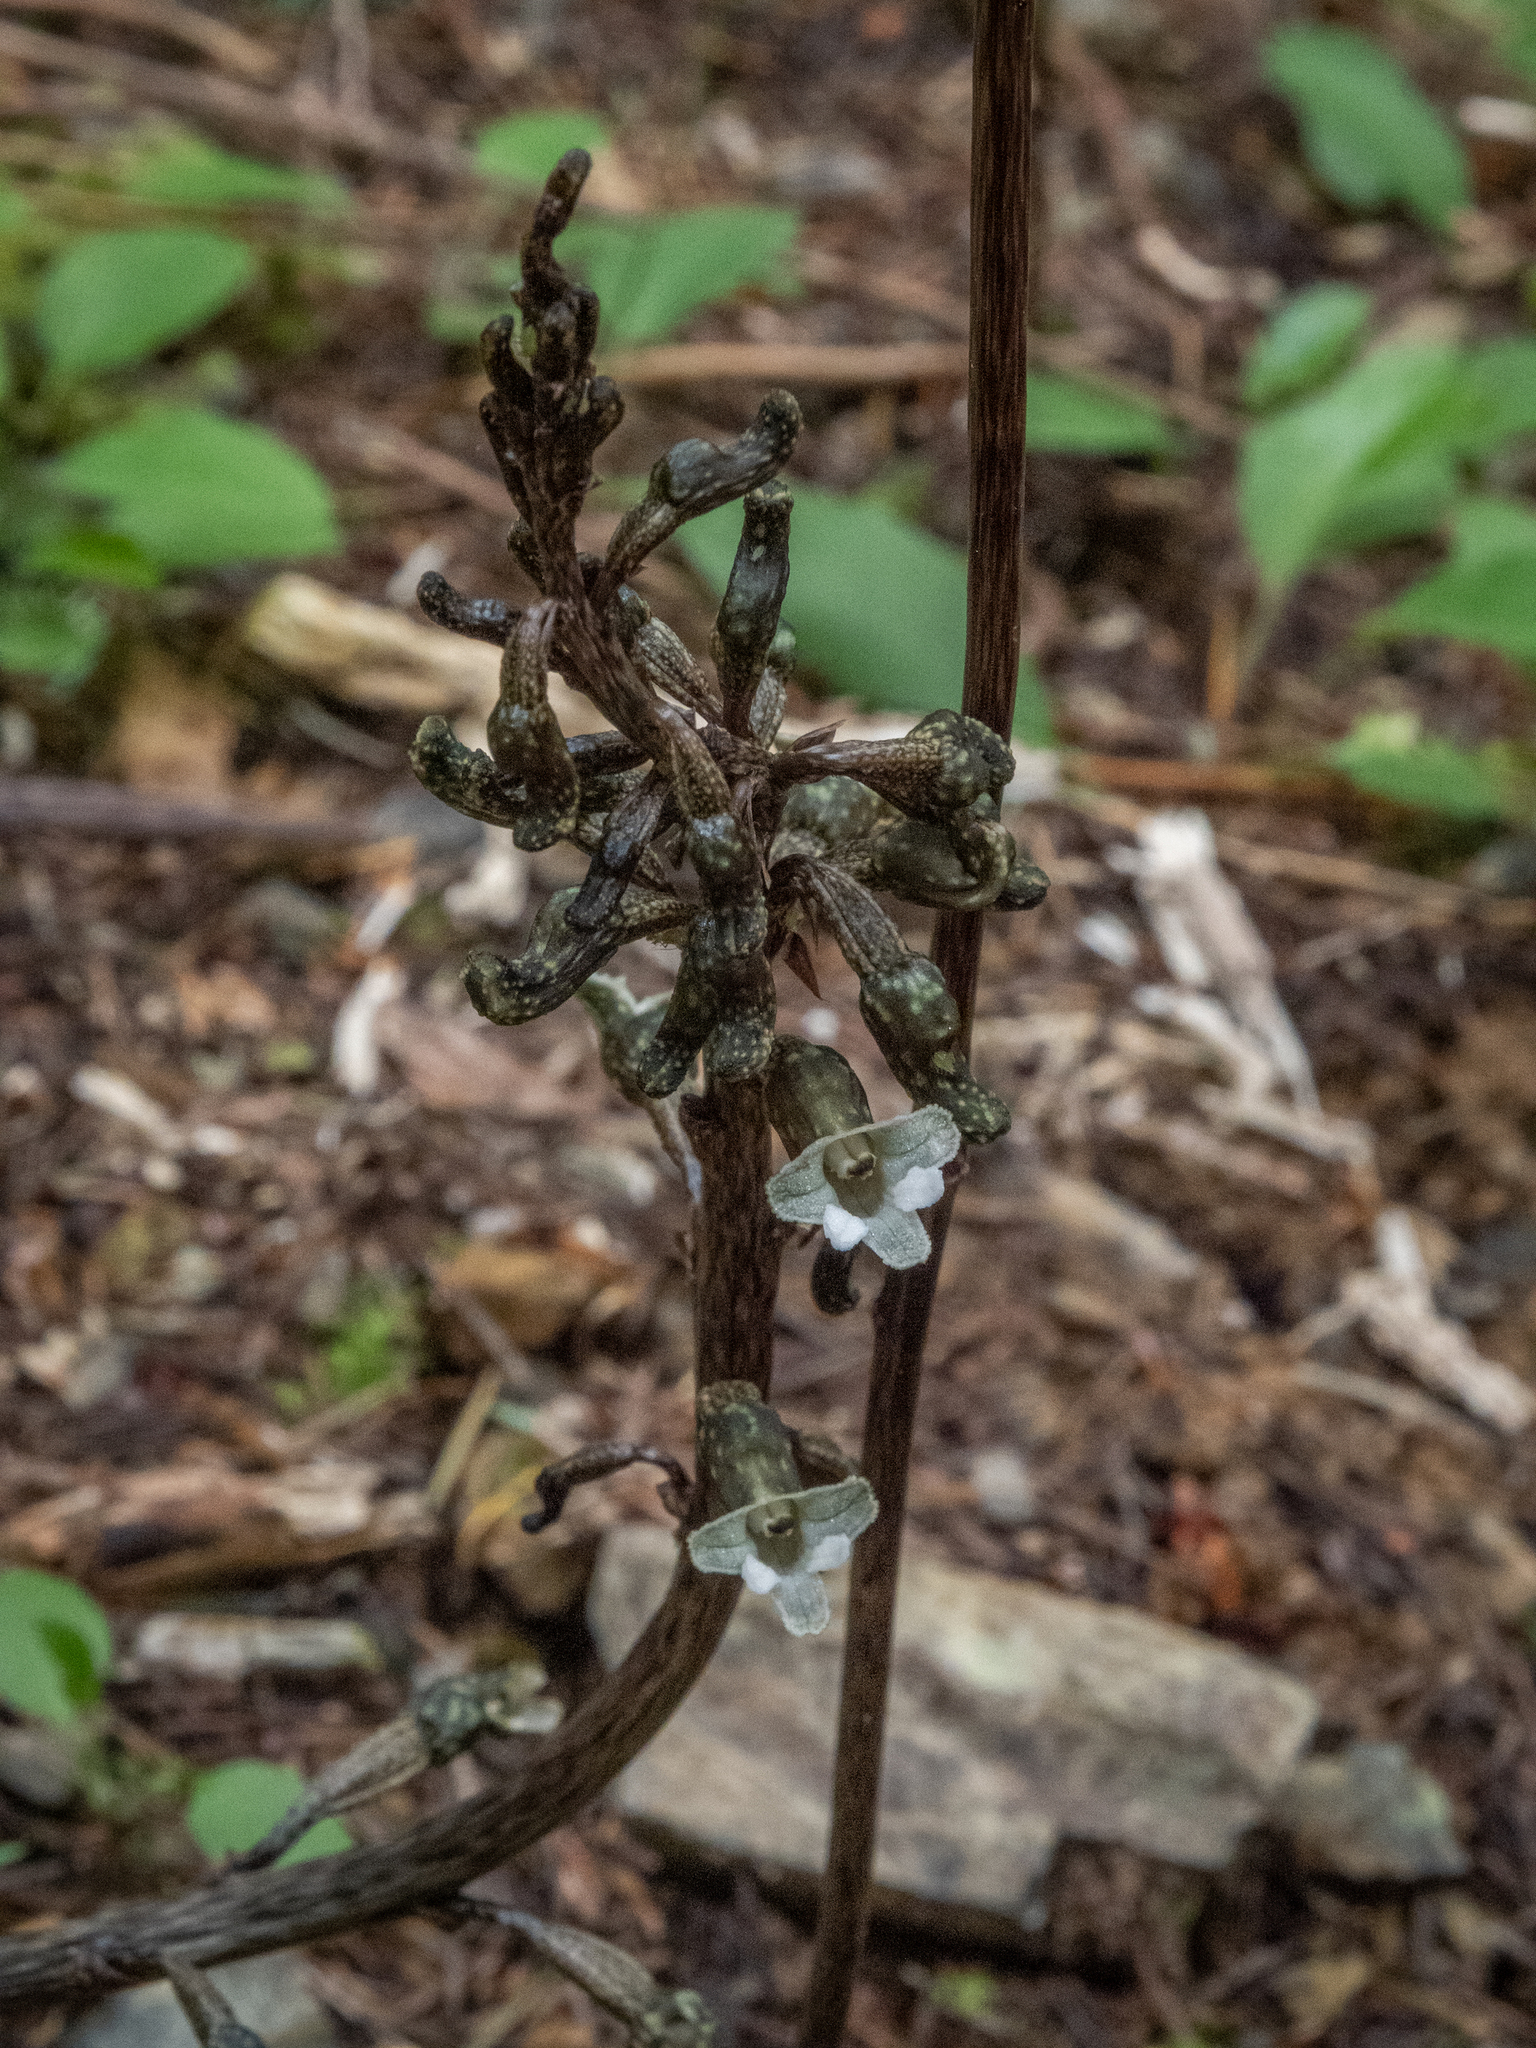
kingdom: Plantae
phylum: Tracheophyta
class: Liliopsida
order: Asparagales
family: Orchidaceae
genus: Gastrodia
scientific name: Gastrodia cunninghamii
